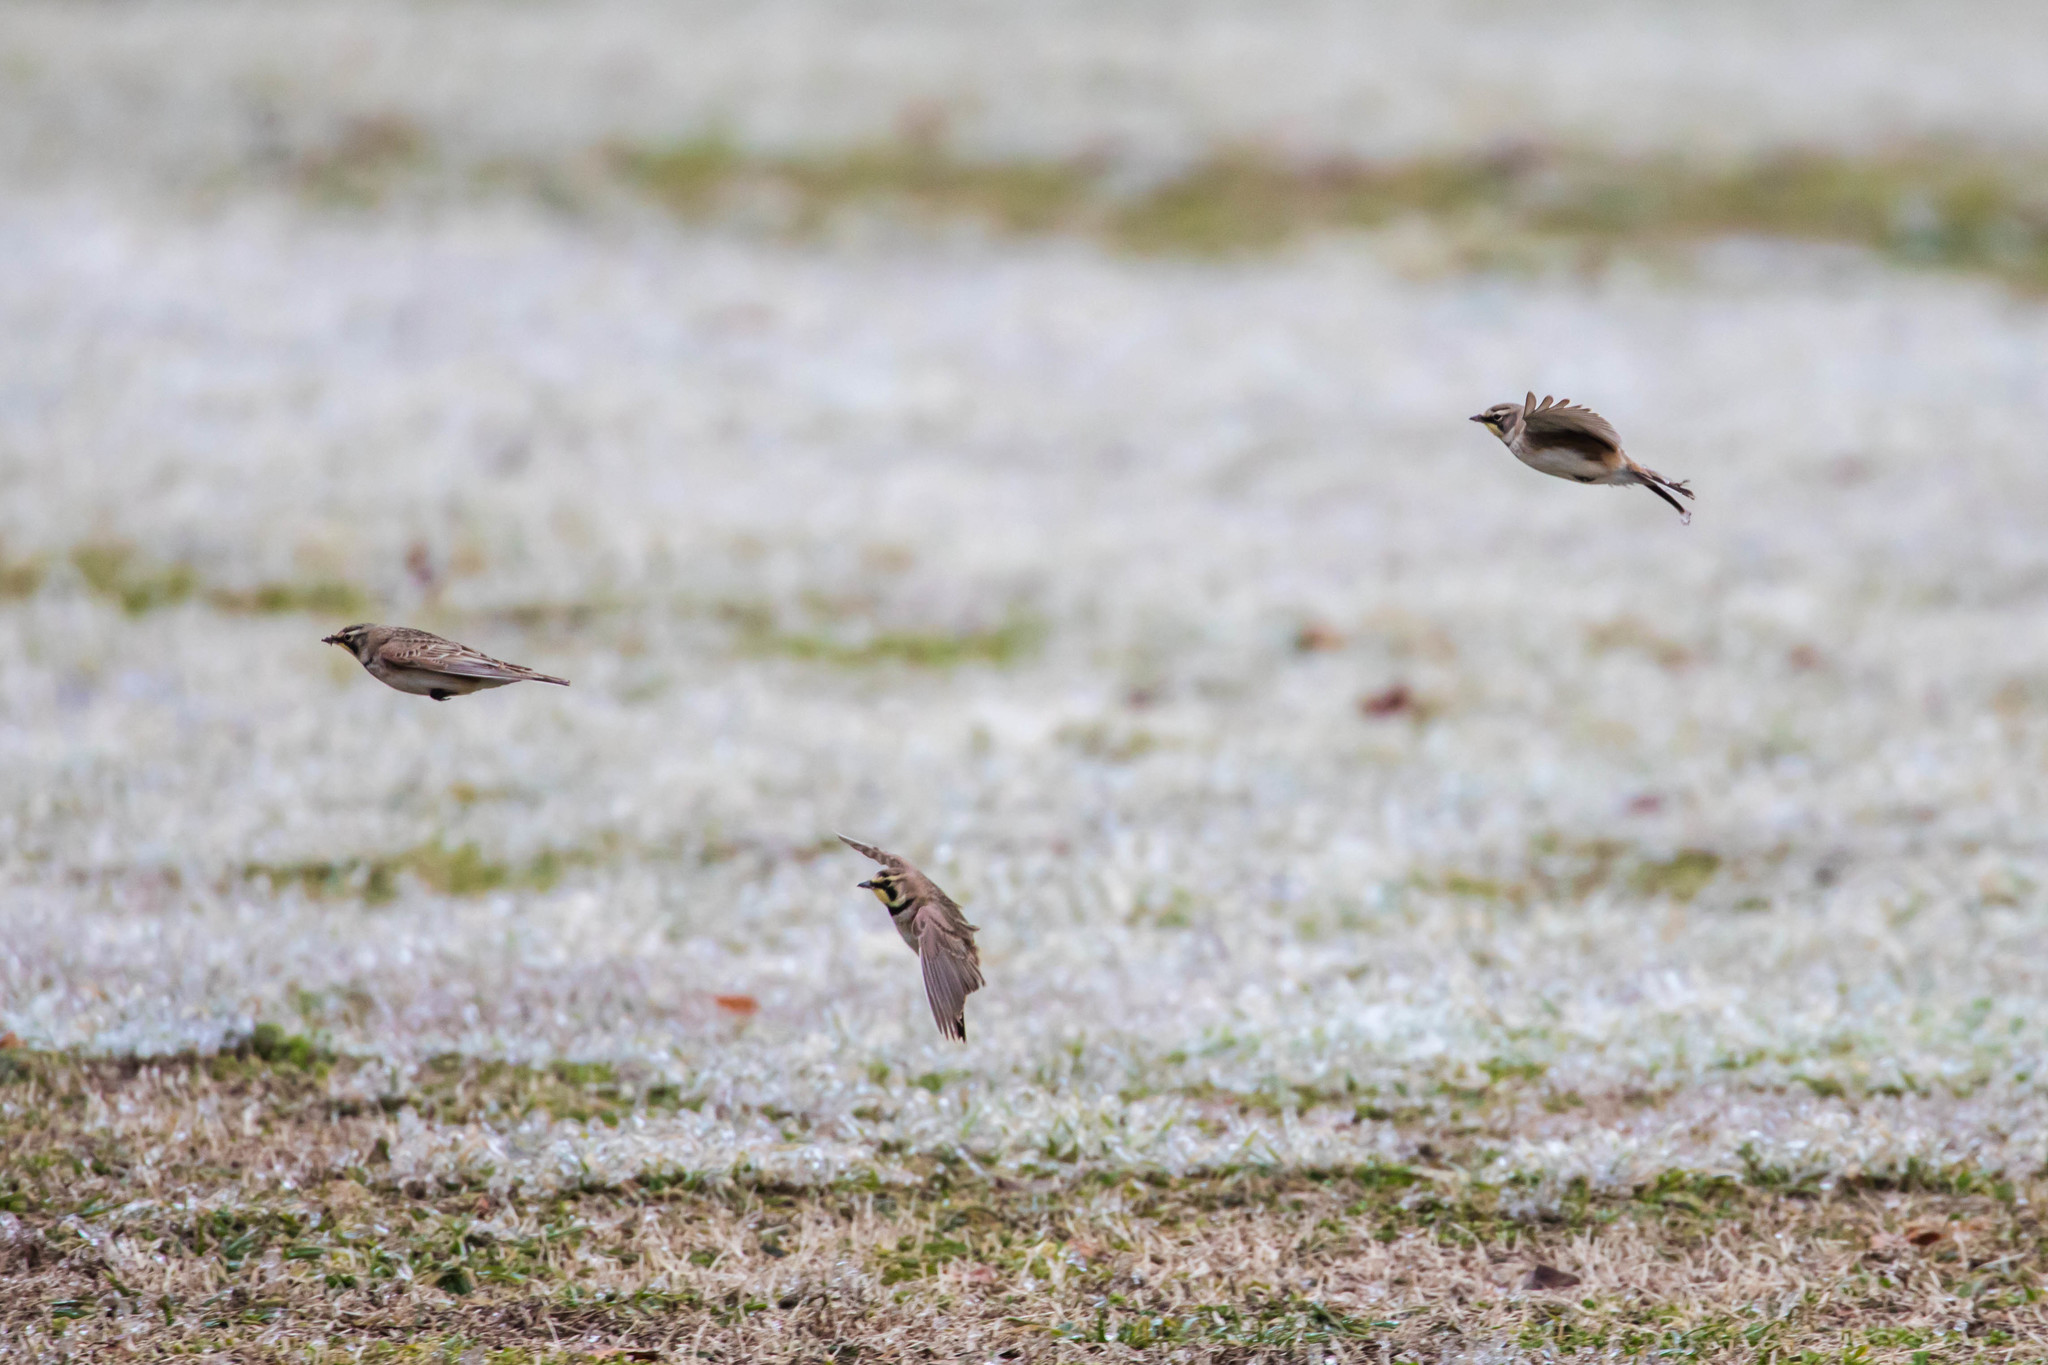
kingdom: Animalia
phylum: Chordata
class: Aves
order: Passeriformes
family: Alaudidae
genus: Eremophila
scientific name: Eremophila alpestris
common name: Horned lark
